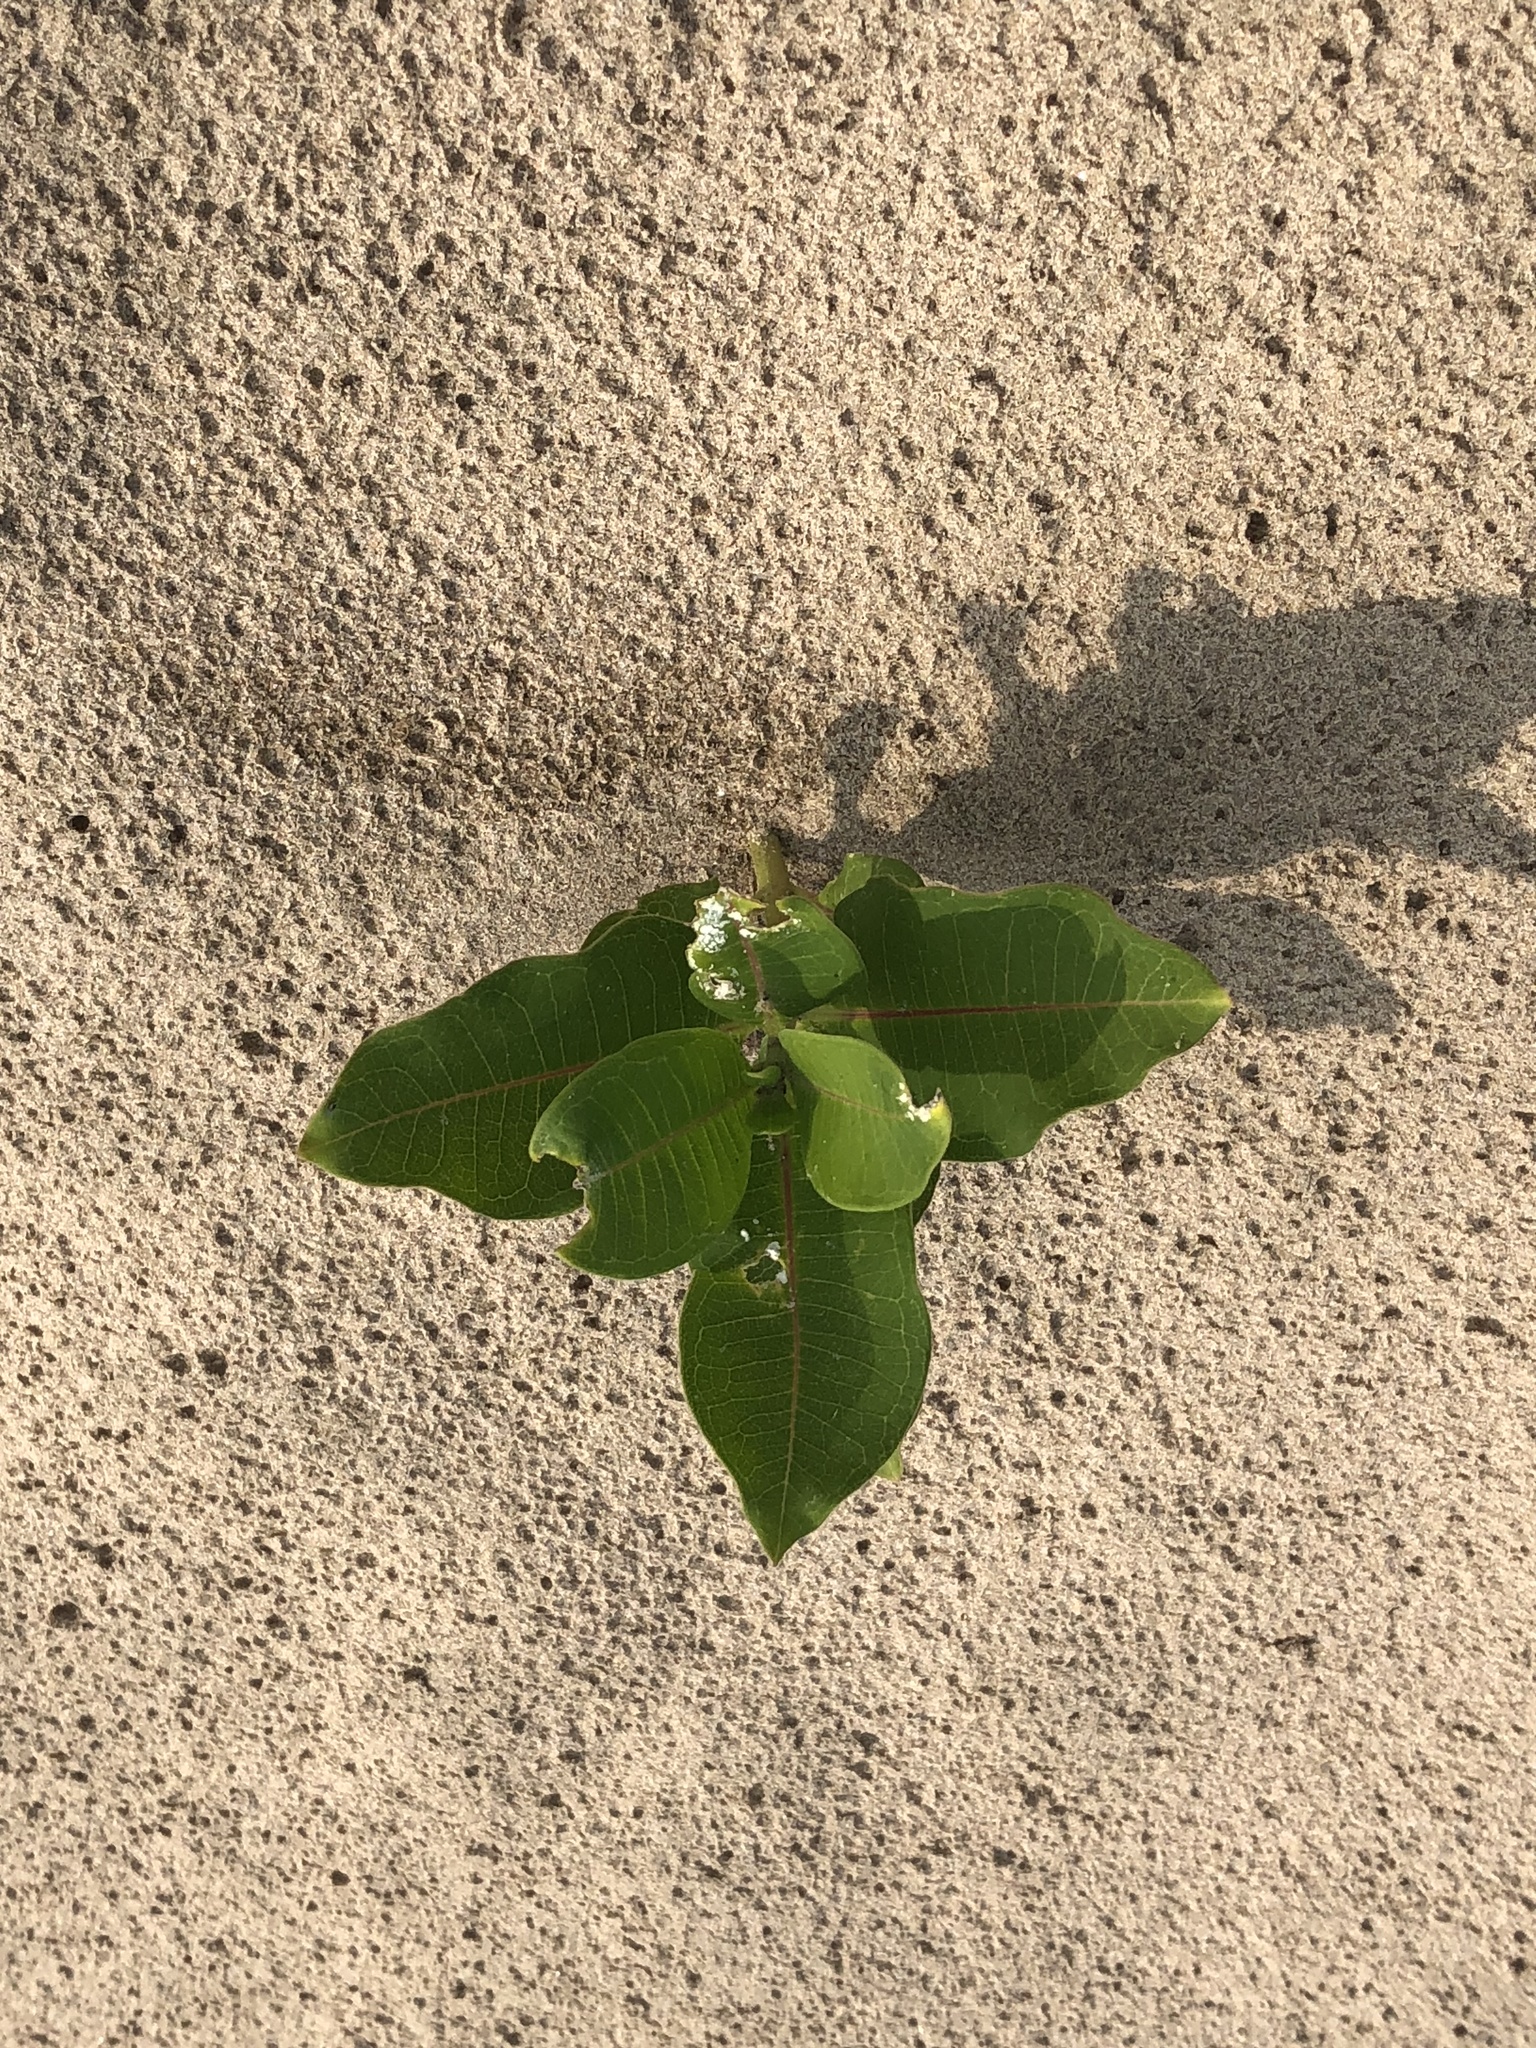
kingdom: Plantae
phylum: Tracheophyta
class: Magnoliopsida
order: Gentianales
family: Apocynaceae
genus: Asclepias
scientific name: Asclepias syriaca
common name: Common milkweed
